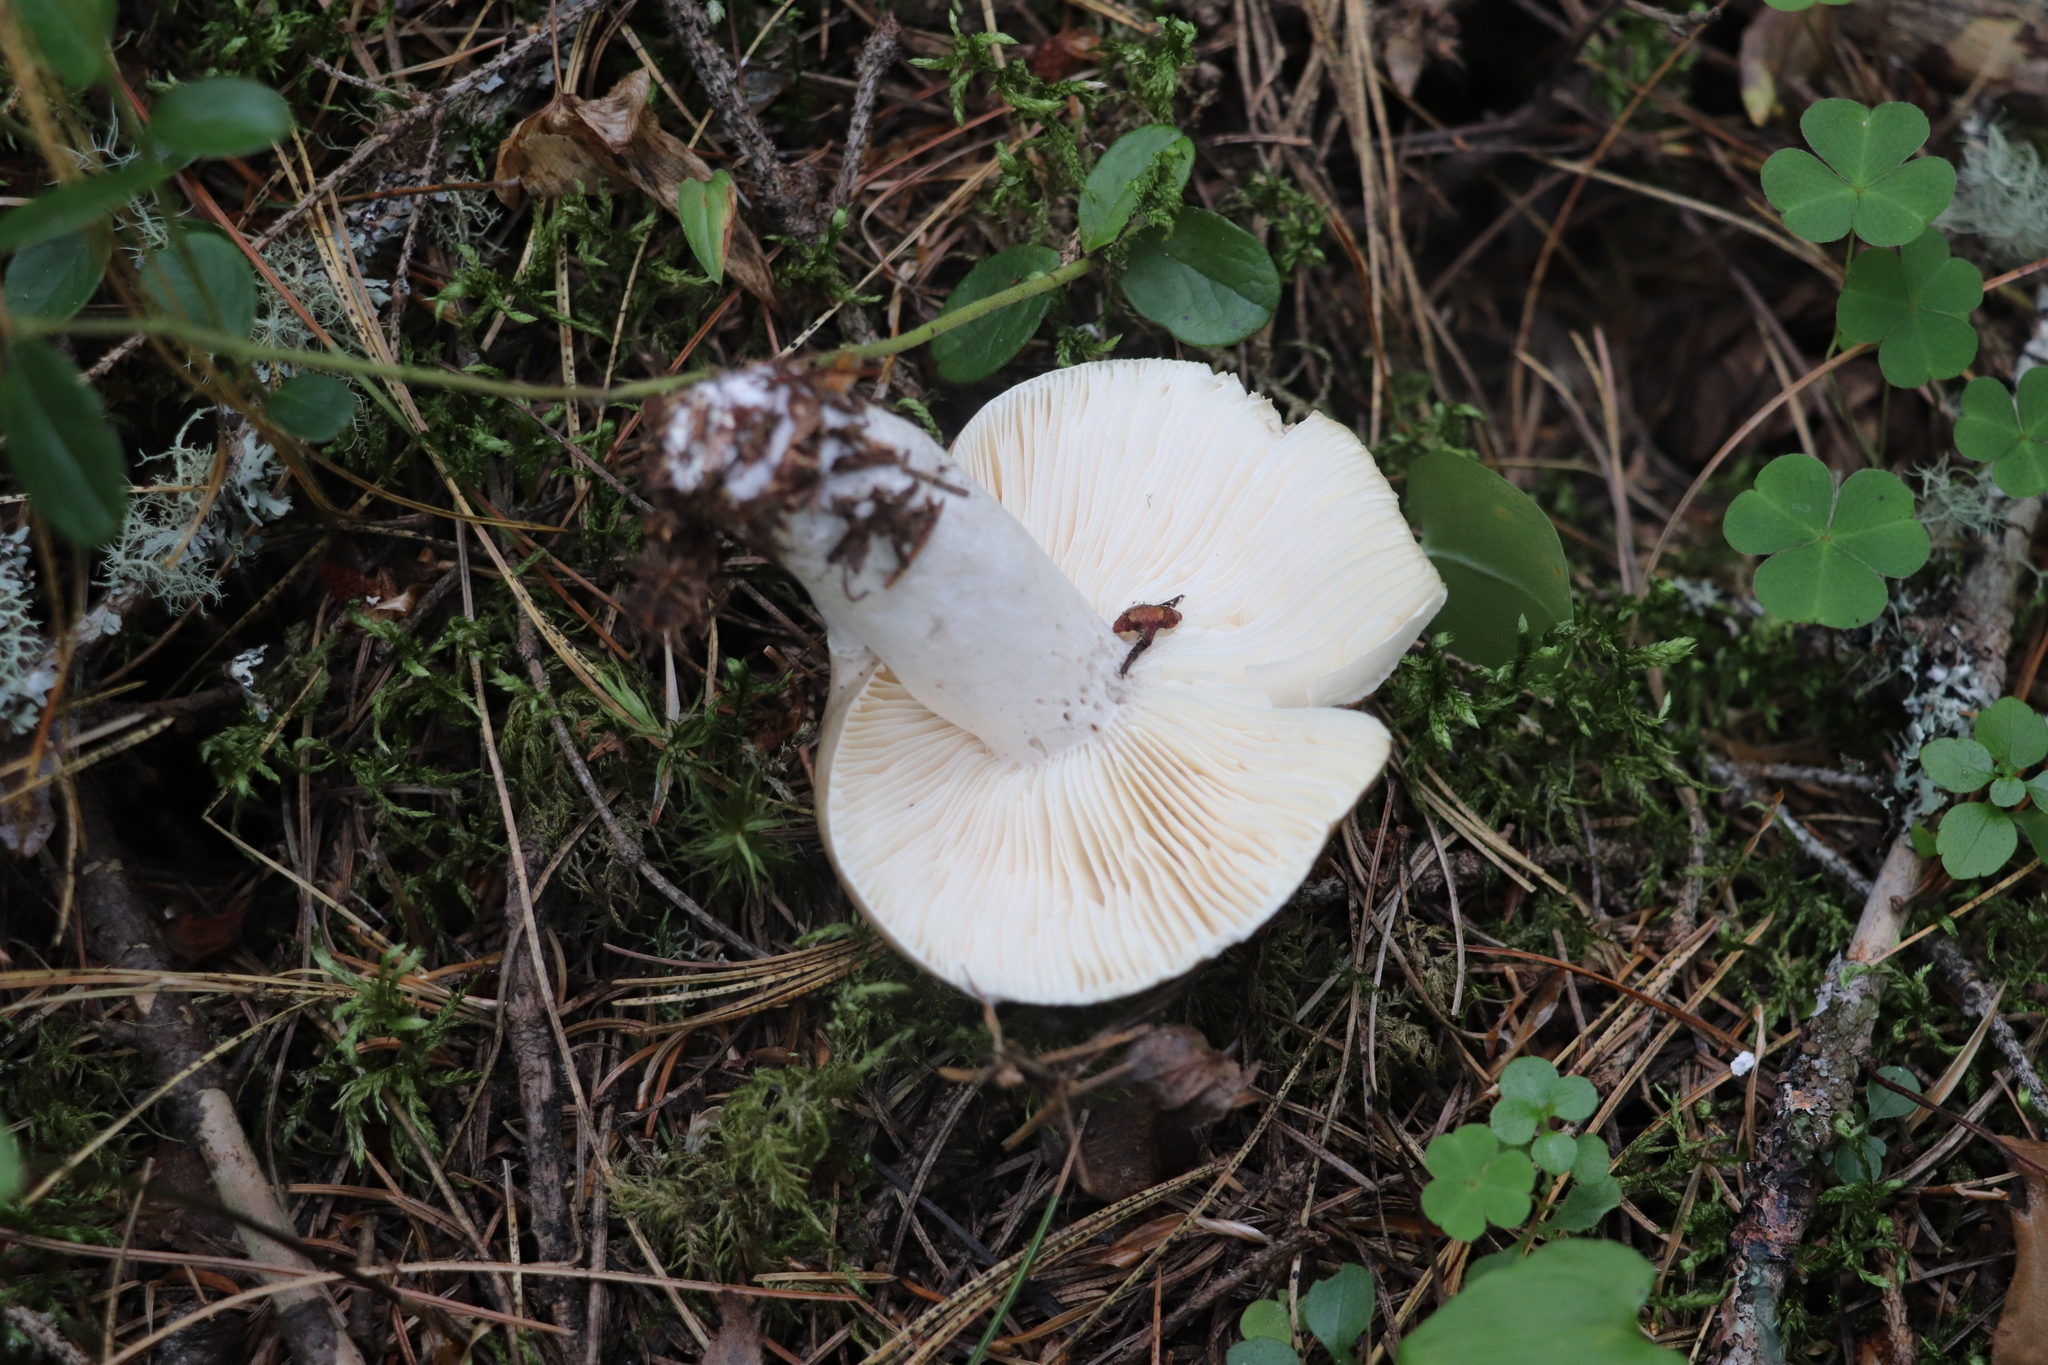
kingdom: Fungi
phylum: Basidiomycota
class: Agaricomycetes
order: Russulales
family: Russulaceae
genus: Russula
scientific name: Russula consobrina
